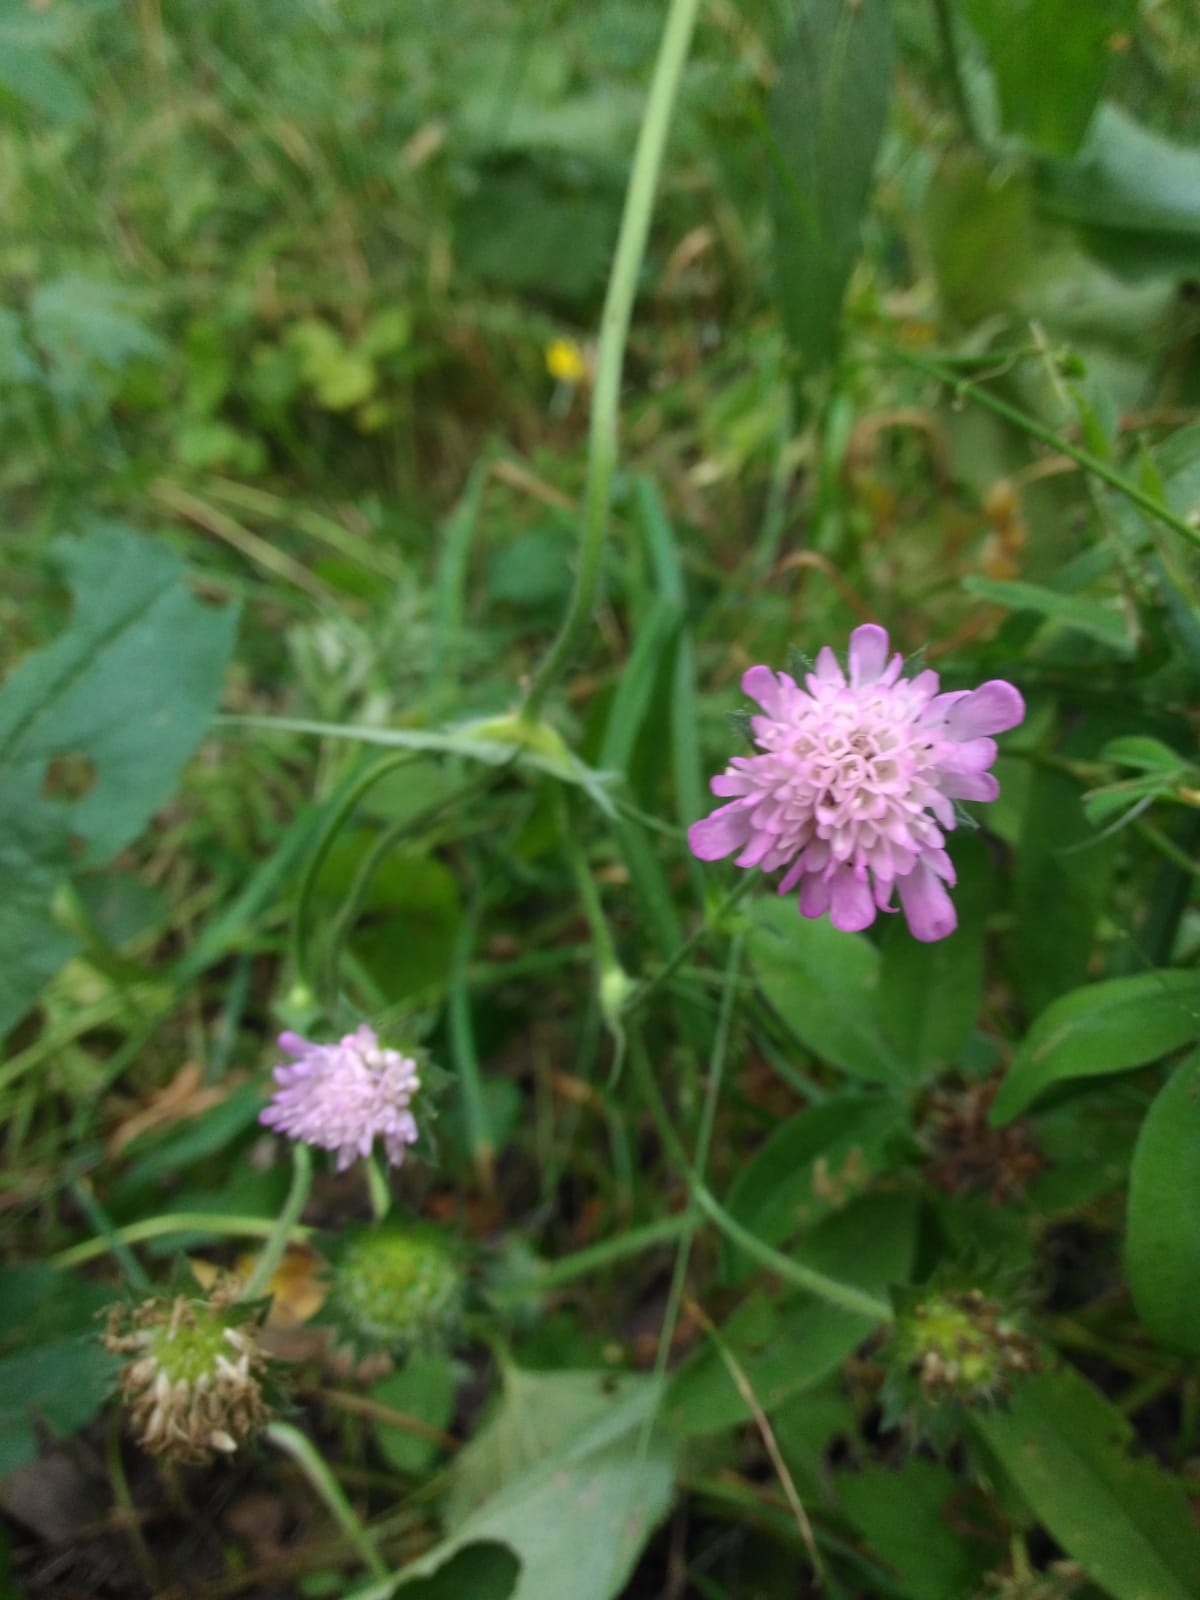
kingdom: Plantae
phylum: Tracheophyta
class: Magnoliopsida
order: Dipsacales
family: Caprifoliaceae
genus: Knautia
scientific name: Knautia arvensis
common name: Field scabiosa
